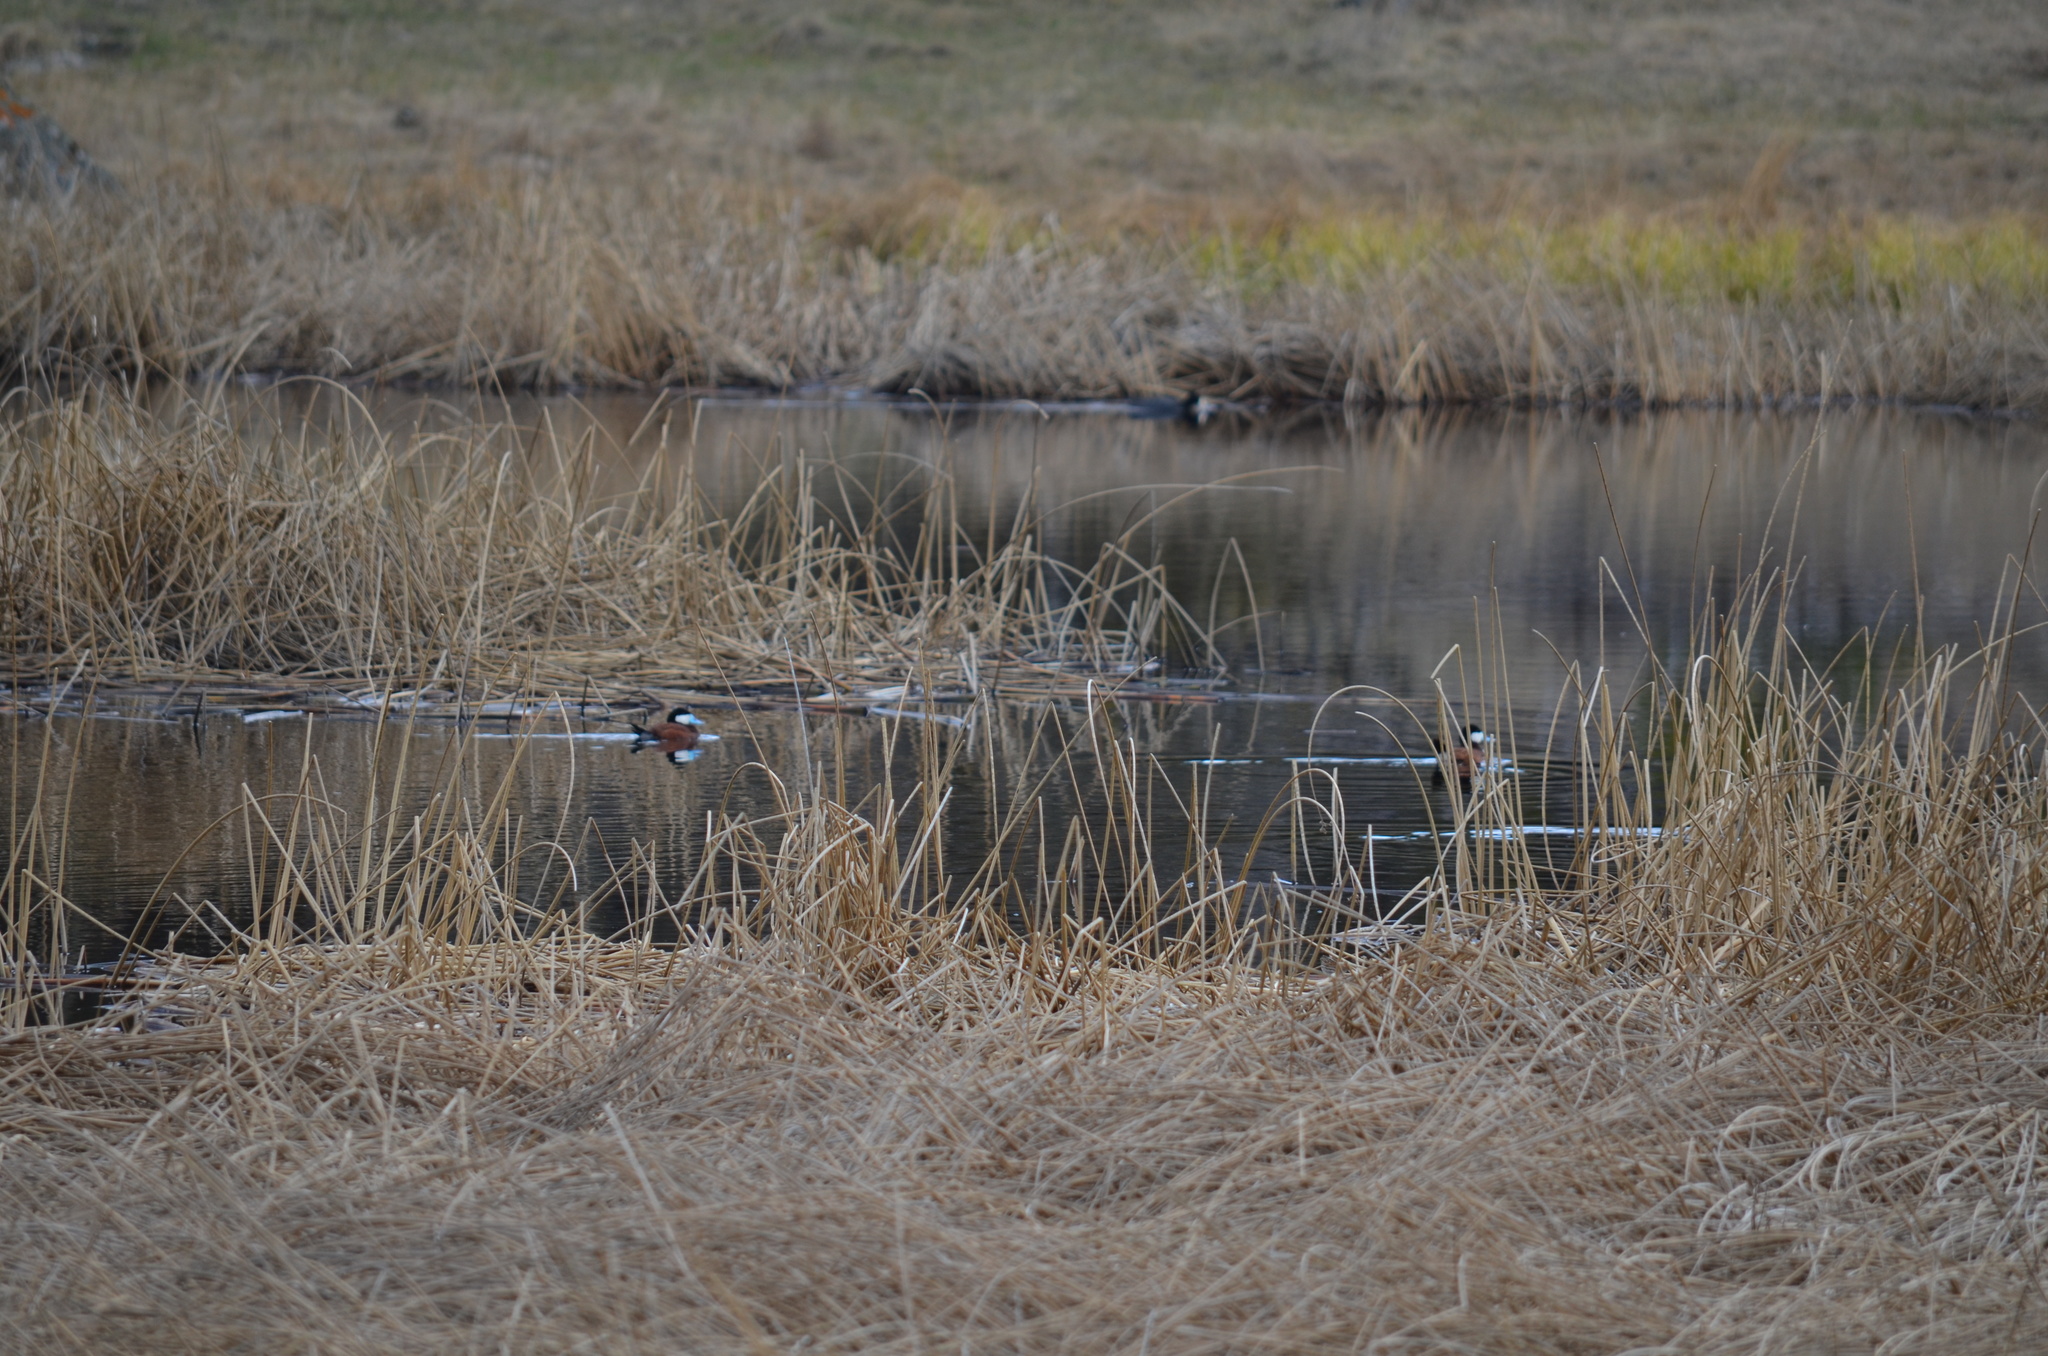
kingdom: Animalia
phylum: Chordata
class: Aves
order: Anseriformes
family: Anatidae
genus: Oxyura
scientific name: Oxyura jamaicensis
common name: Ruddy duck
